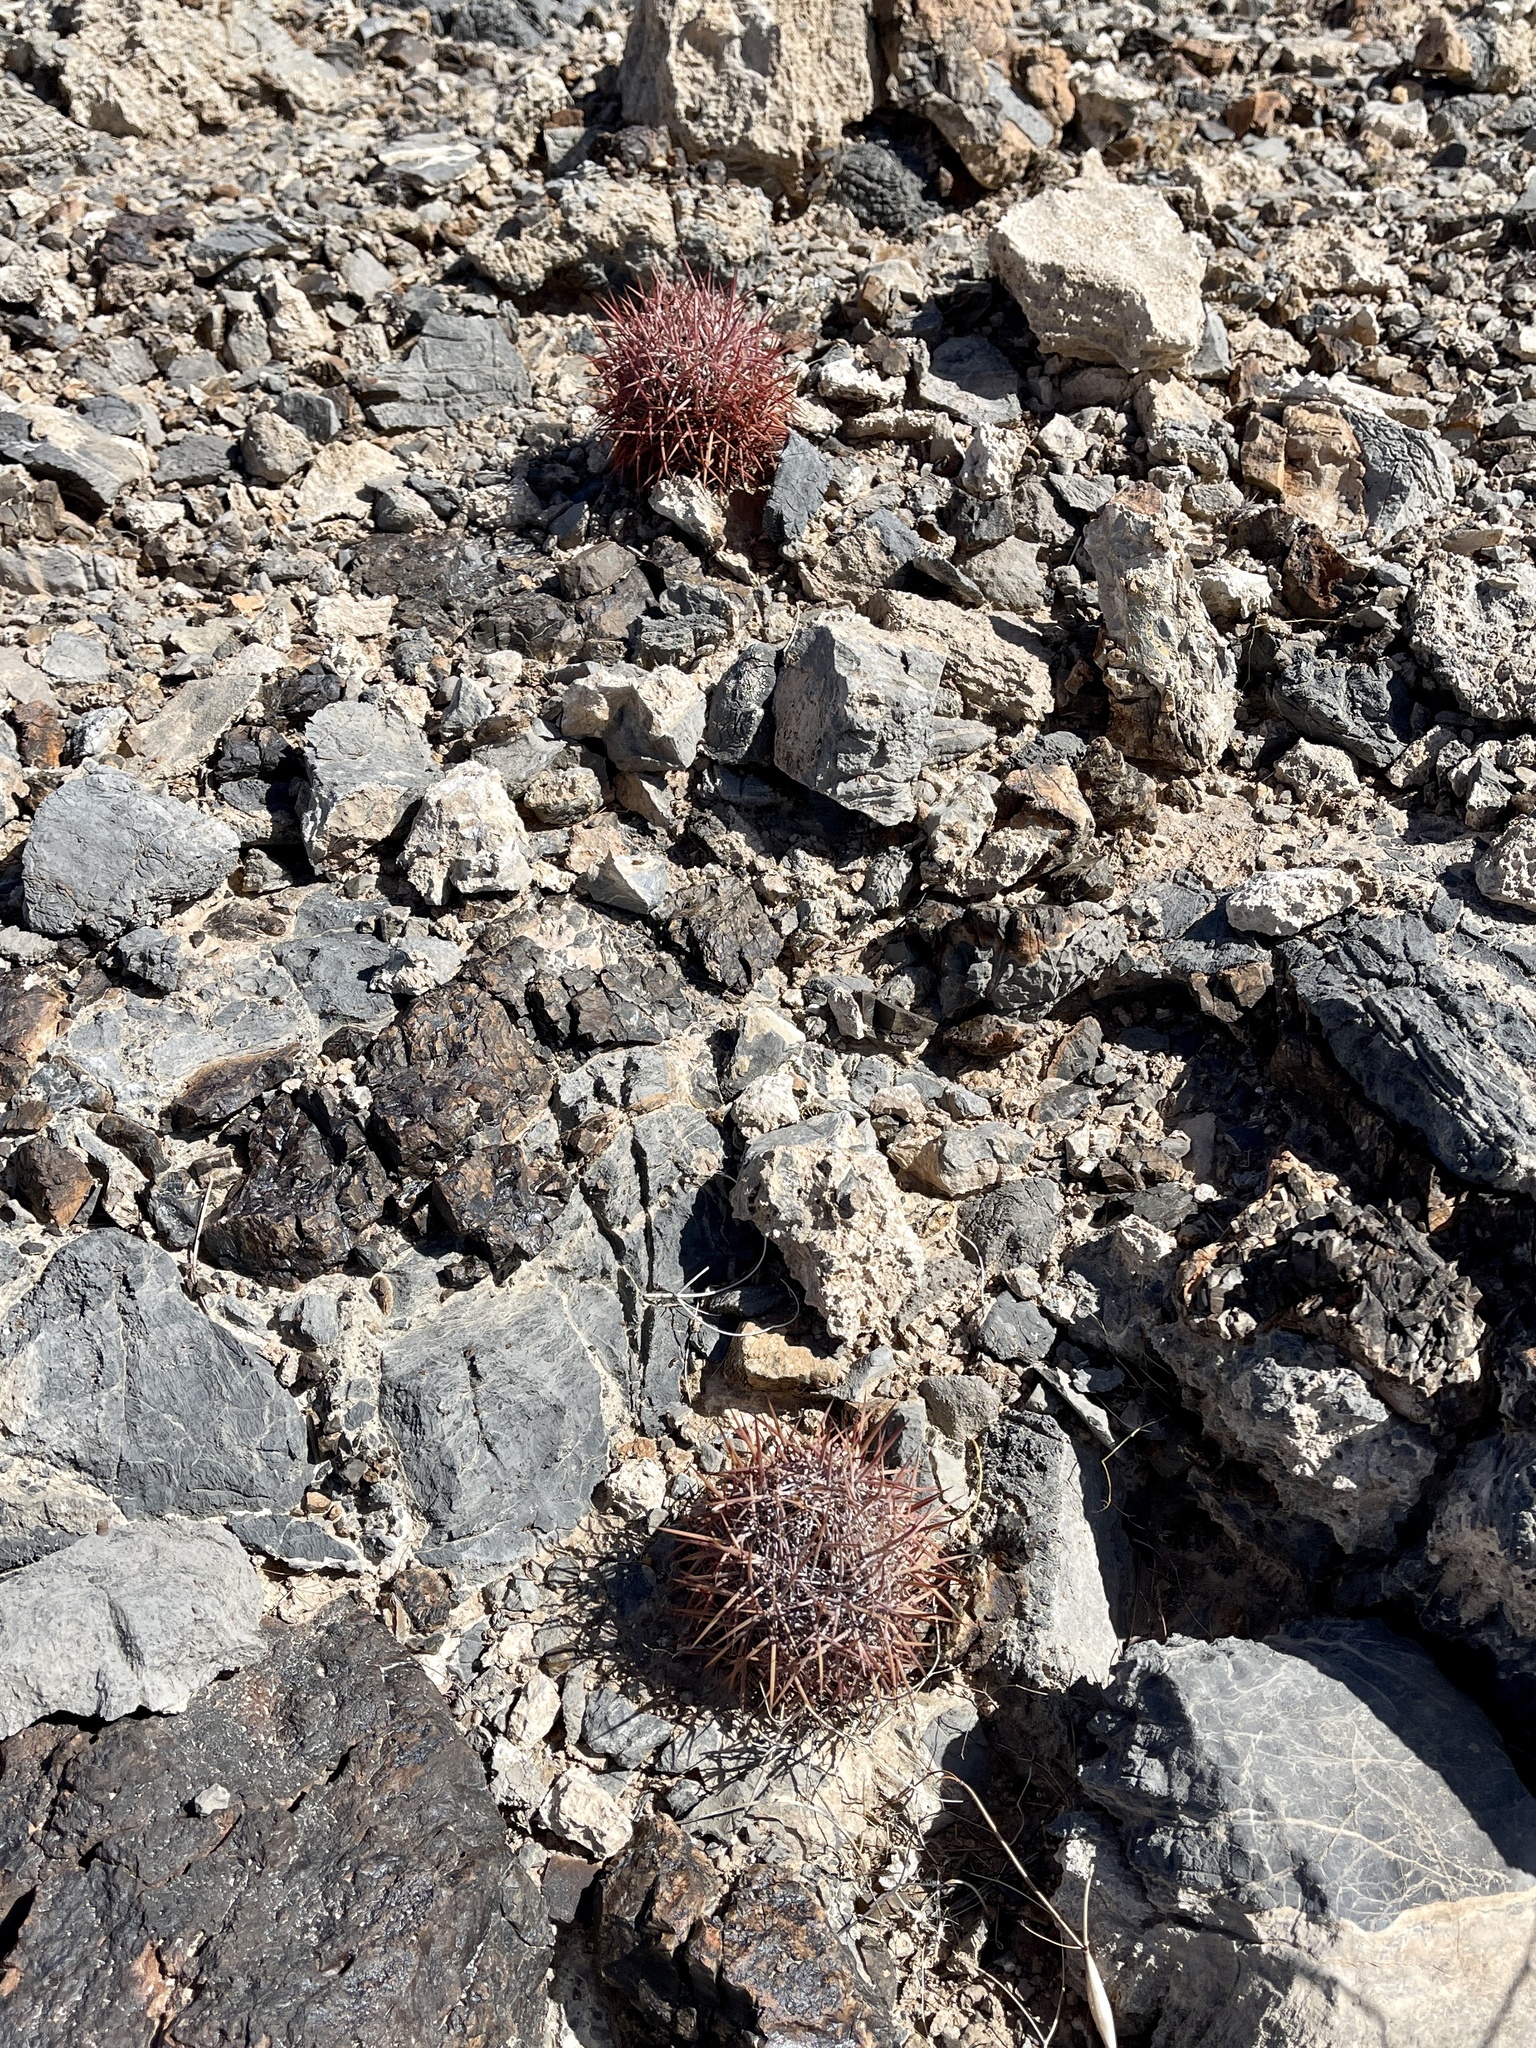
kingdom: Plantae
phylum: Tracheophyta
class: Magnoliopsida
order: Caryophyllales
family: Cactaceae
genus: Sclerocactus
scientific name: Sclerocactus johnsonii
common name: Eight-spine fishhook cactus
